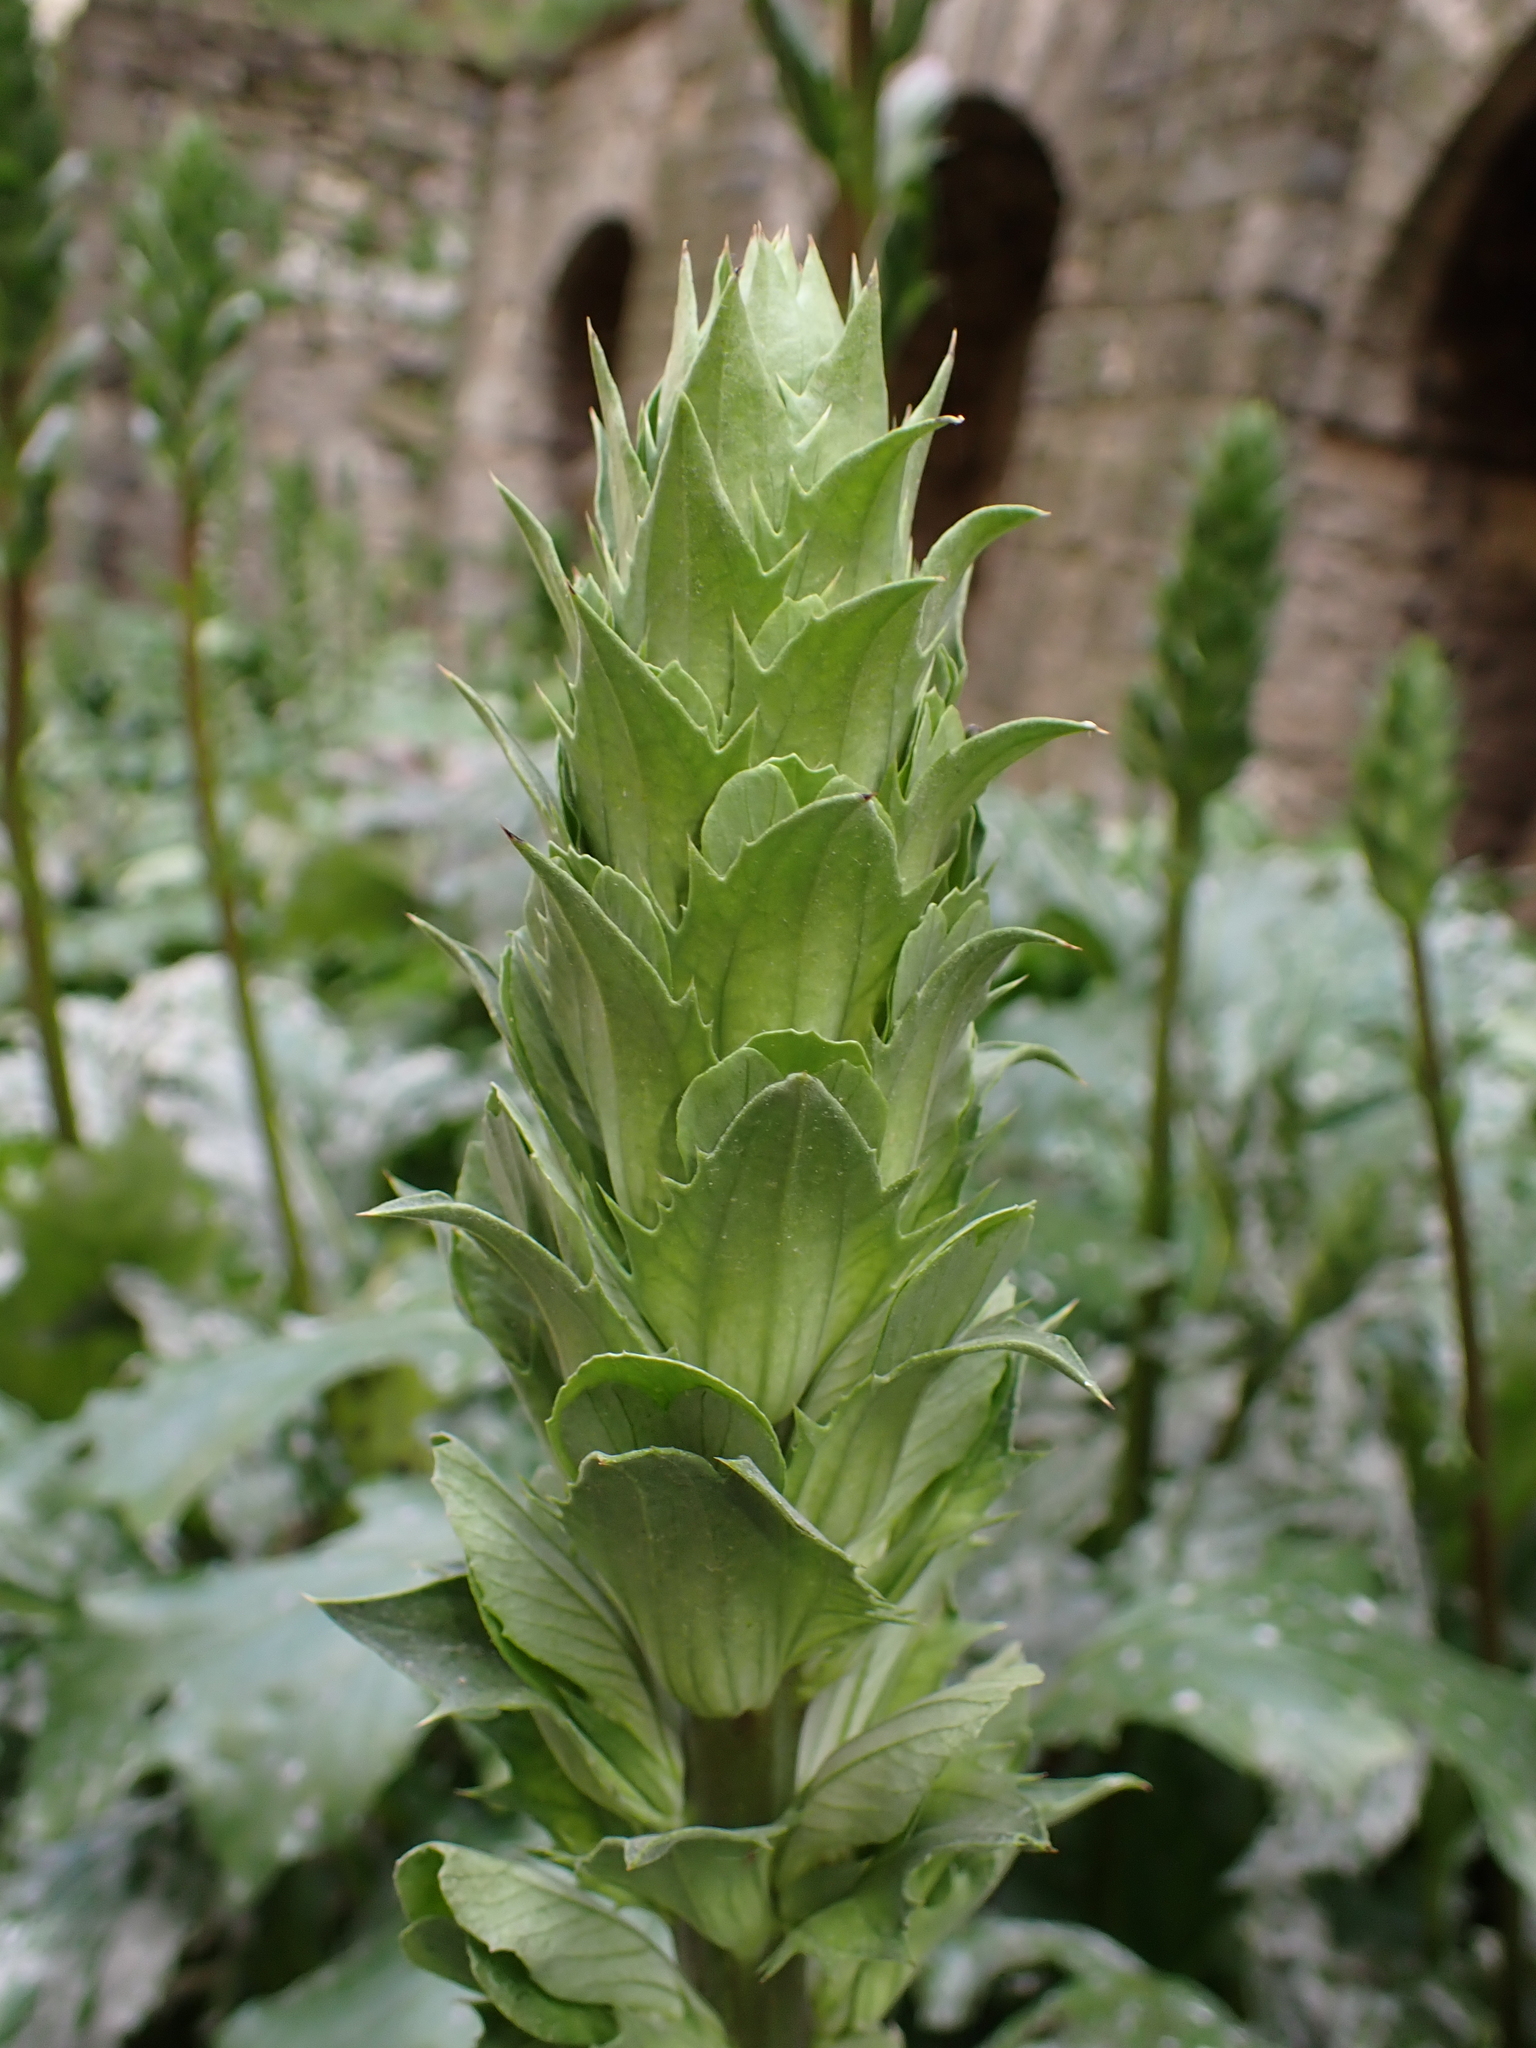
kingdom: Plantae
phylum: Tracheophyta
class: Magnoliopsida
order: Lamiales
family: Acanthaceae
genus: Acanthus
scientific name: Acanthus mollis
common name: Bear's-breech
